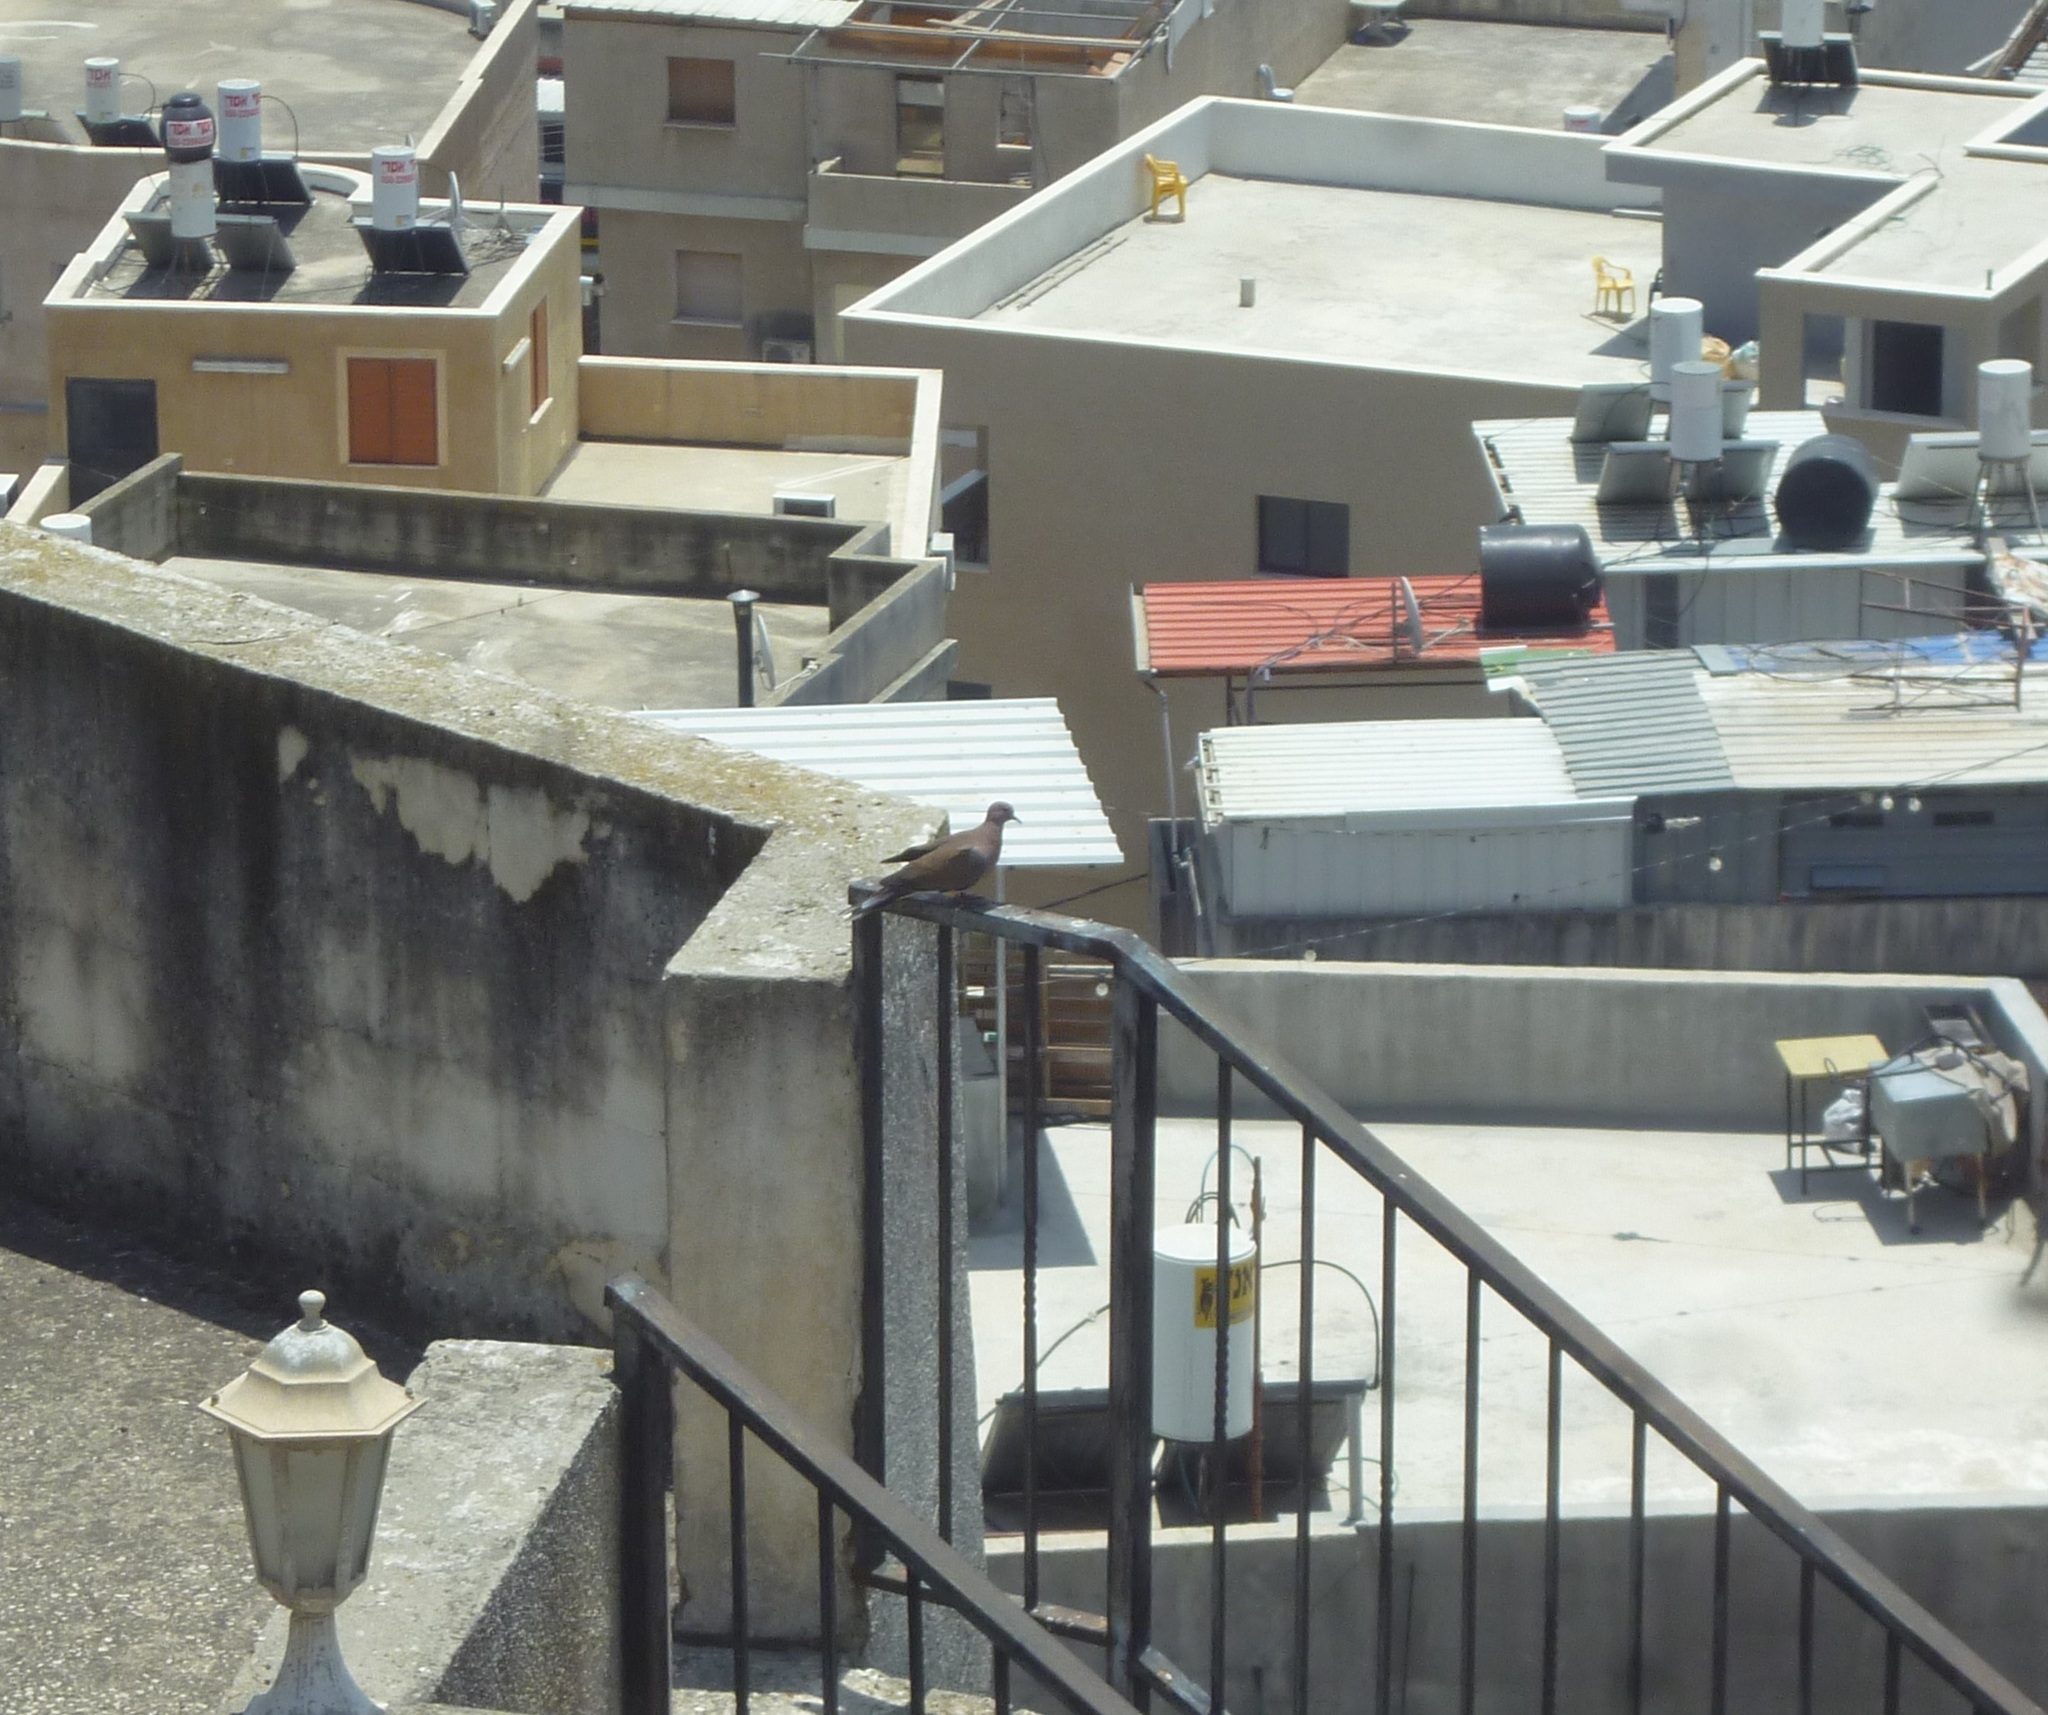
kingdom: Animalia
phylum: Chordata
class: Aves
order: Columbiformes
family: Columbidae
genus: Spilopelia
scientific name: Spilopelia senegalensis
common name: Laughing dove
